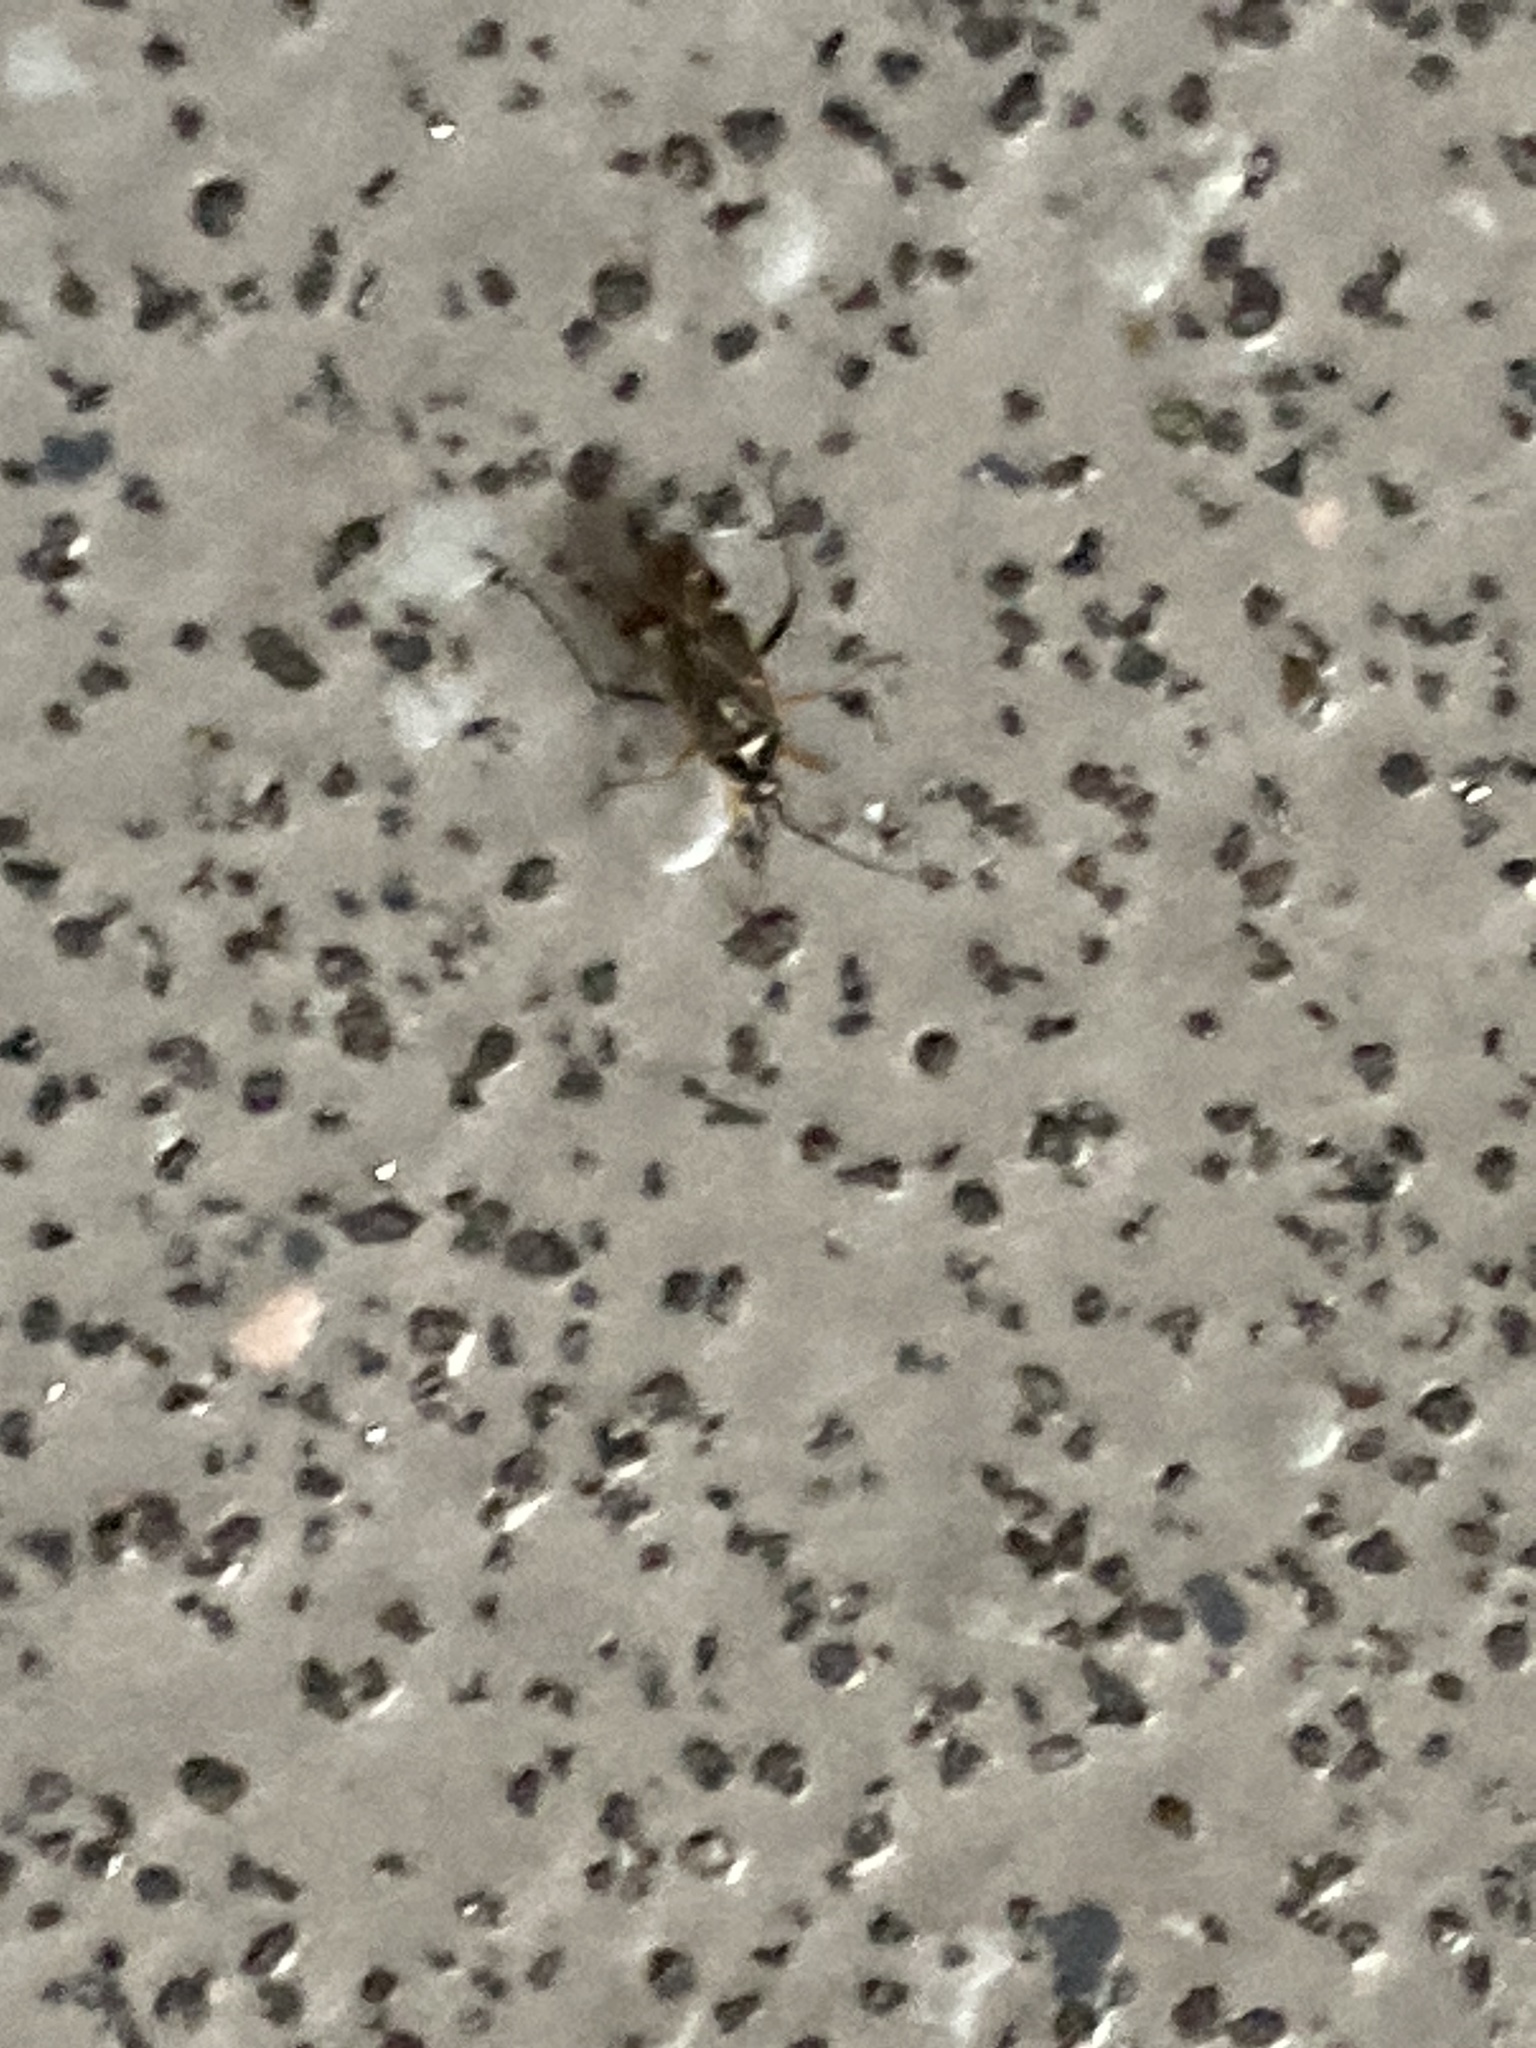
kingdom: Animalia
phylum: Arthropoda
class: Insecta
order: Hemiptera
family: Miridae
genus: Harpocera
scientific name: Harpocera thoracica
